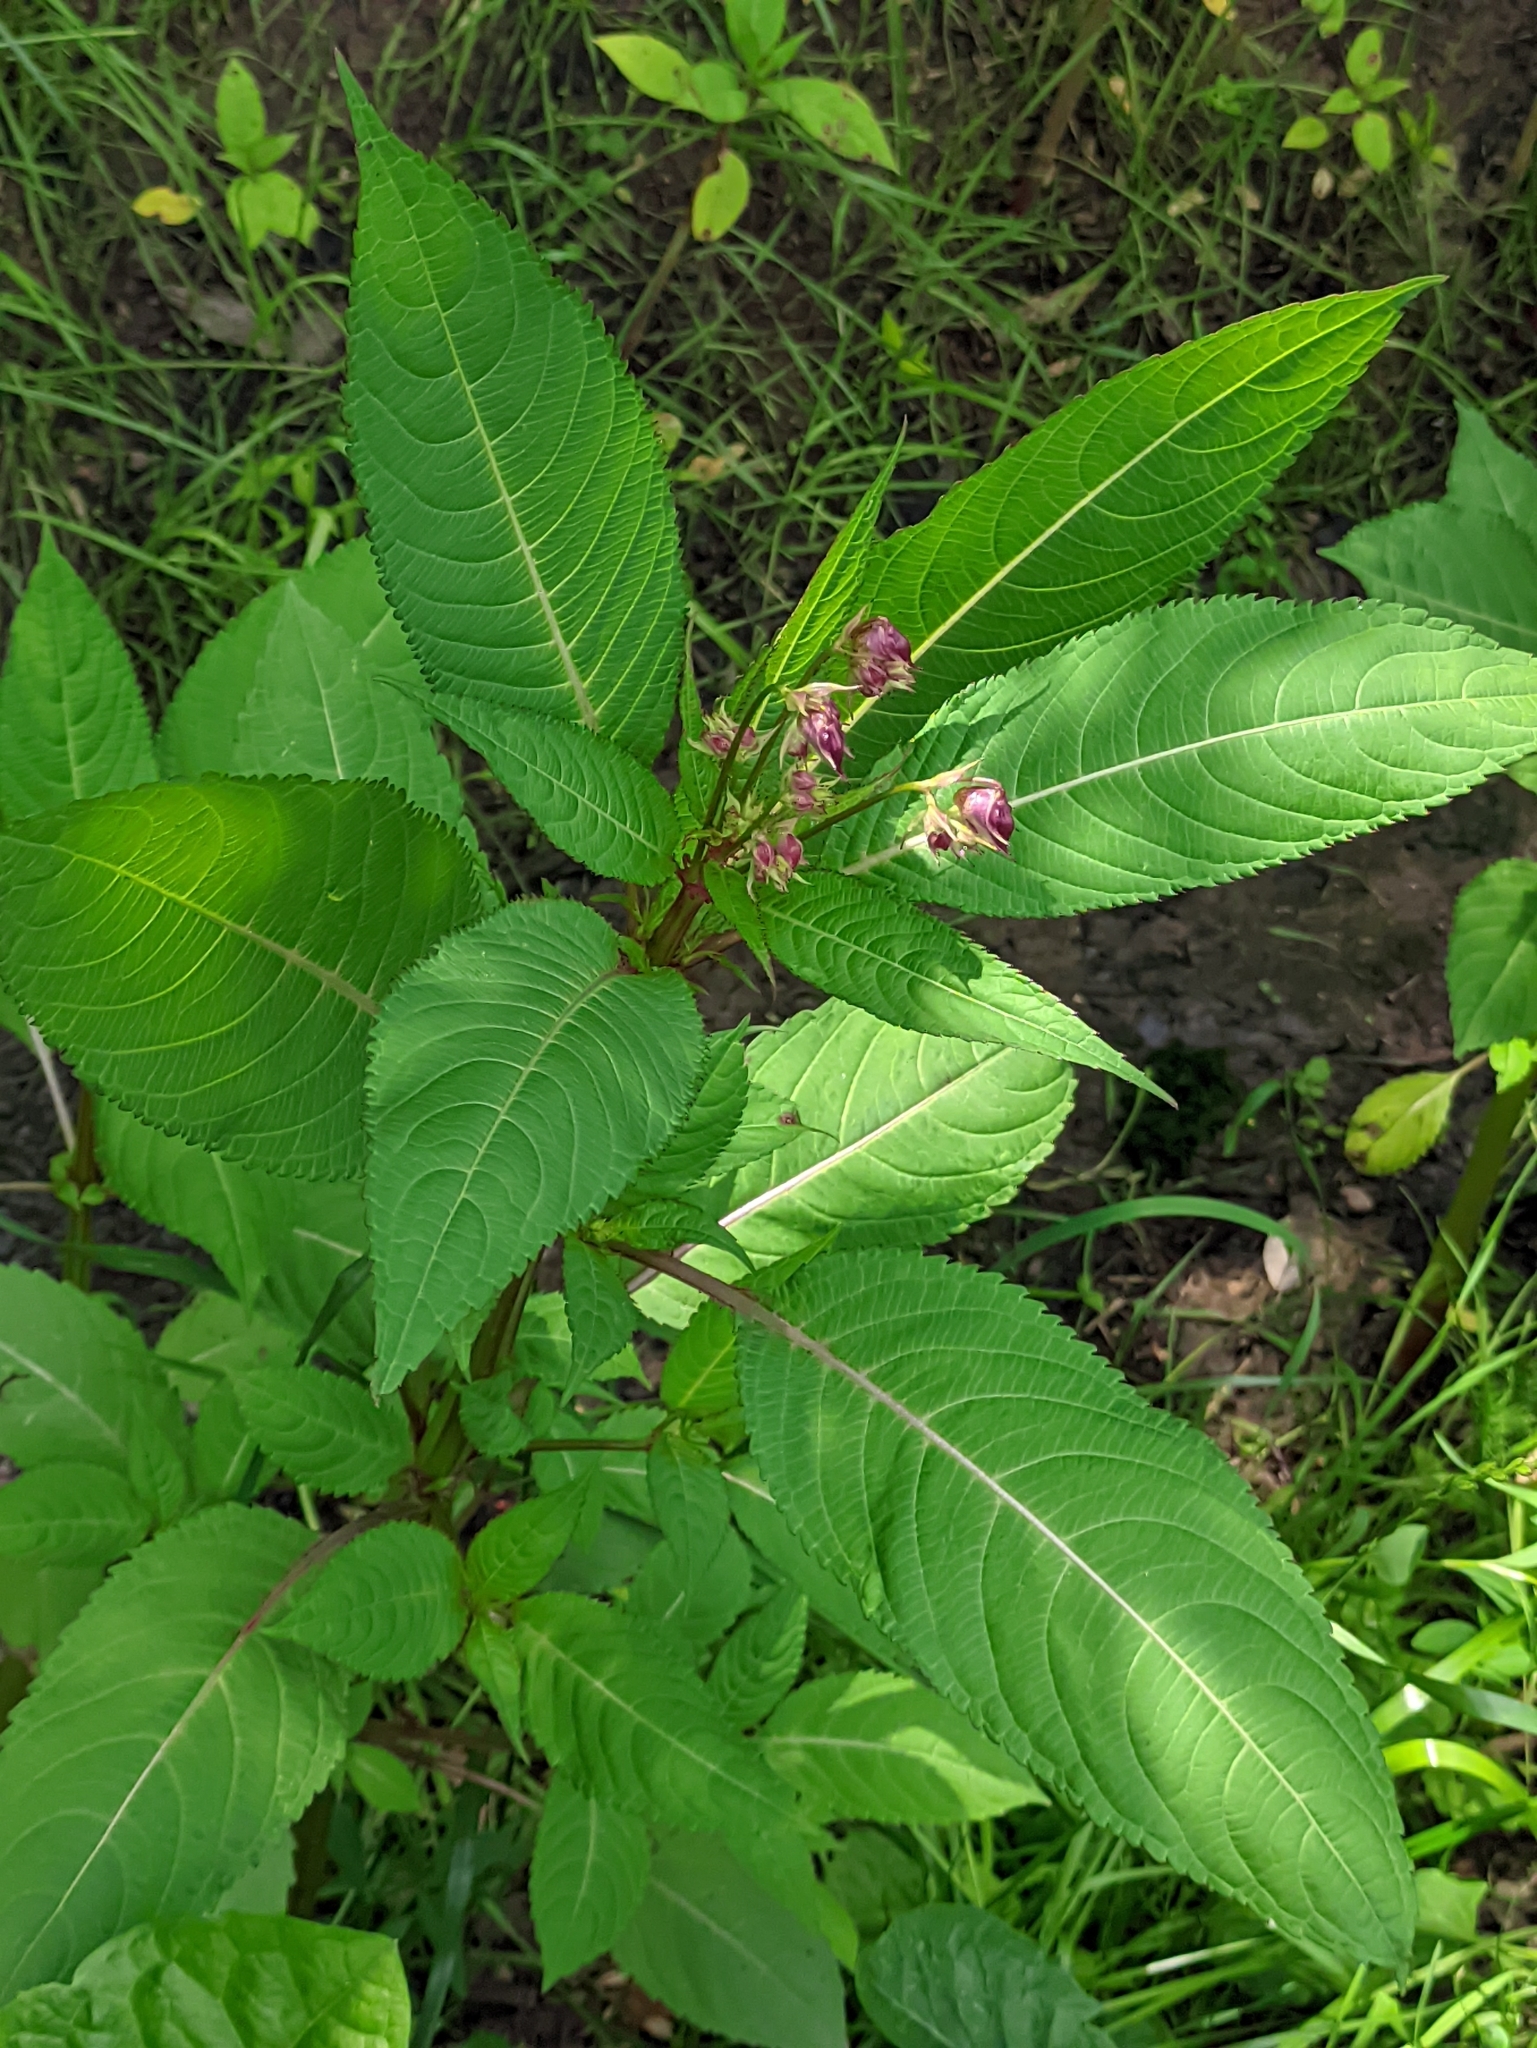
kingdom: Plantae
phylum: Tracheophyta
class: Magnoliopsida
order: Ericales
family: Balsaminaceae
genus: Impatiens
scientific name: Impatiens glandulifera
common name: Himalayan balsam
